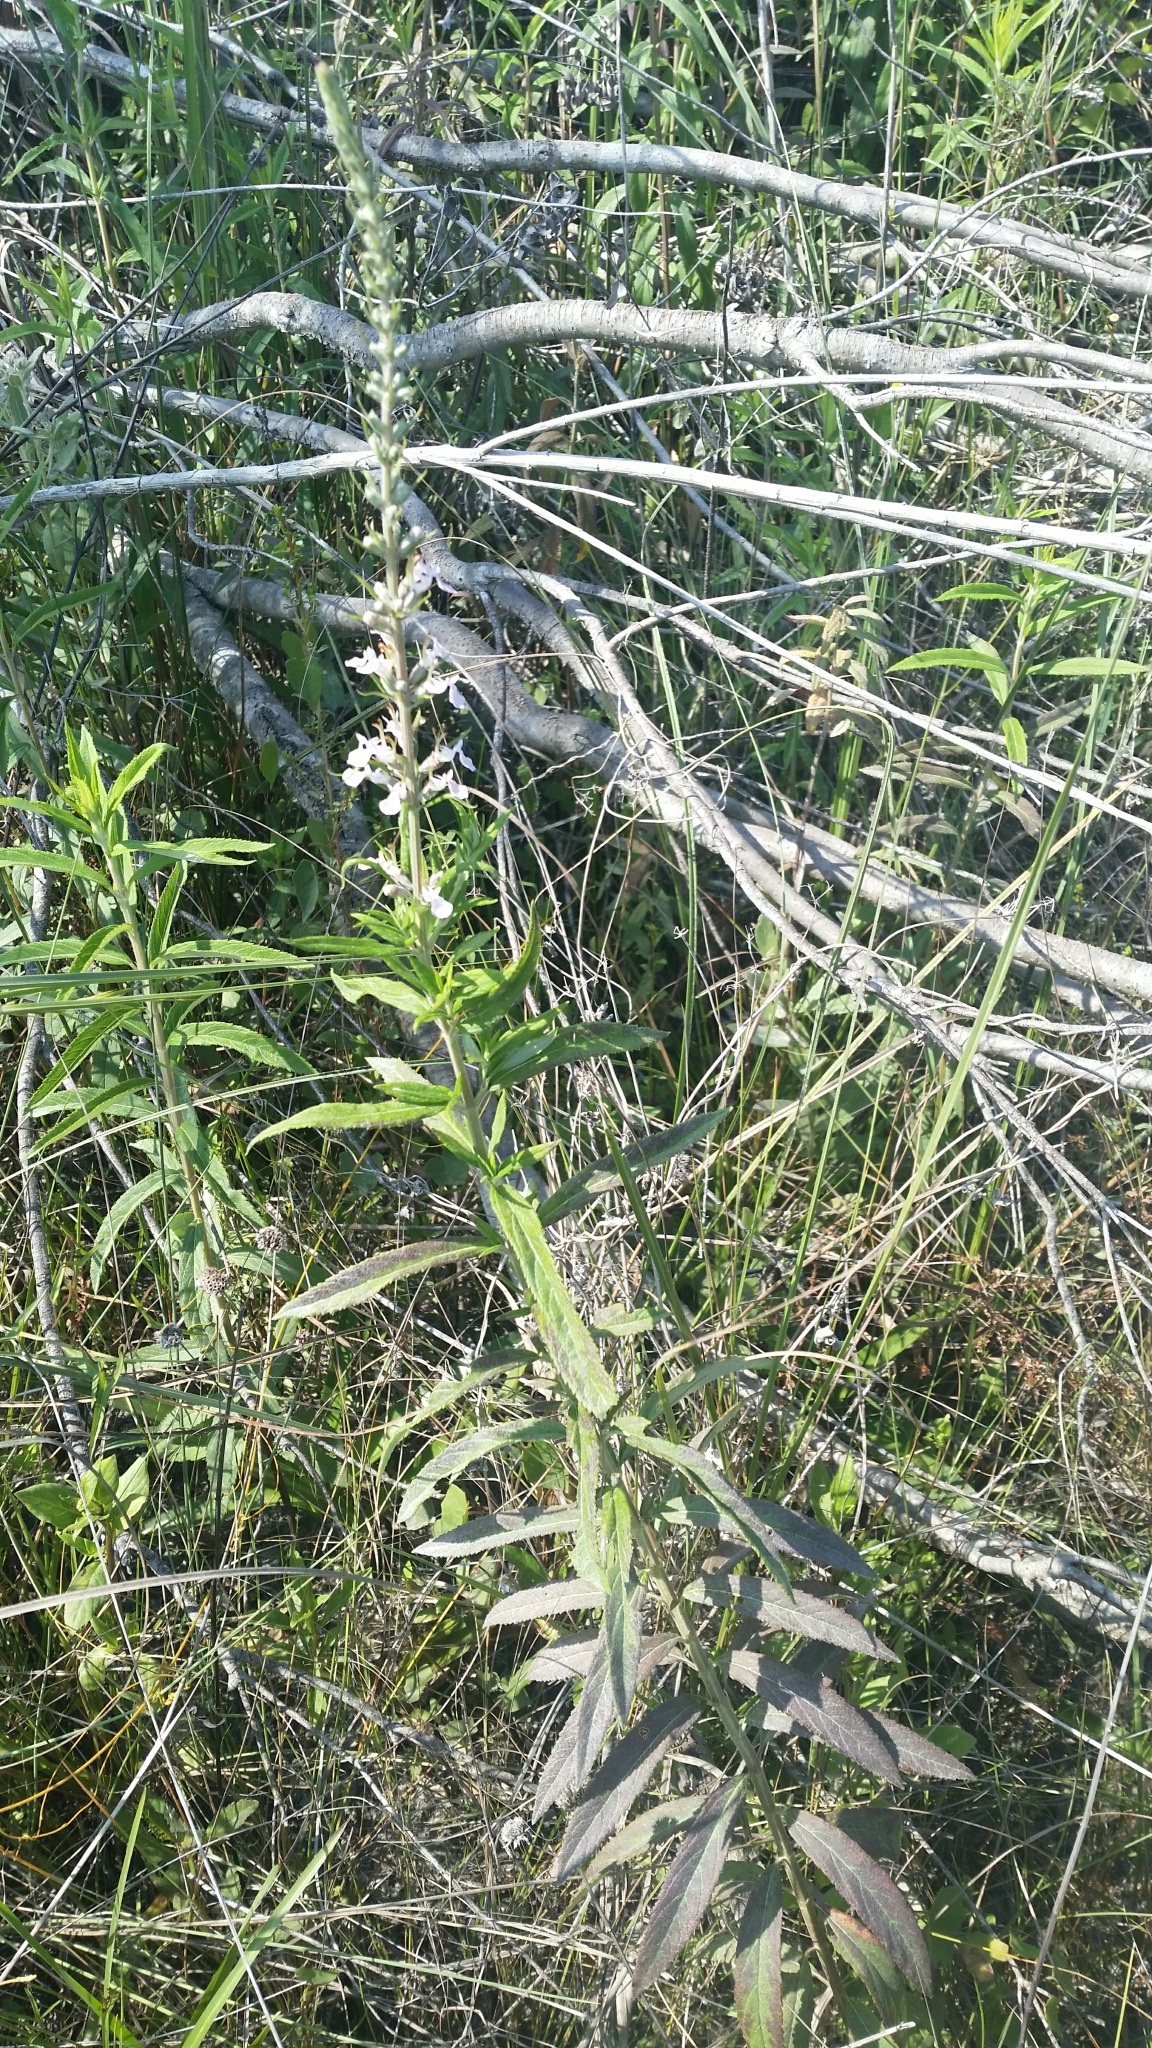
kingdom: Plantae
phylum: Tracheophyta
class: Magnoliopsida
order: Lamiales
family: Lamiaceae
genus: Teucrium
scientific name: Teucrium canadense
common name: American germander
